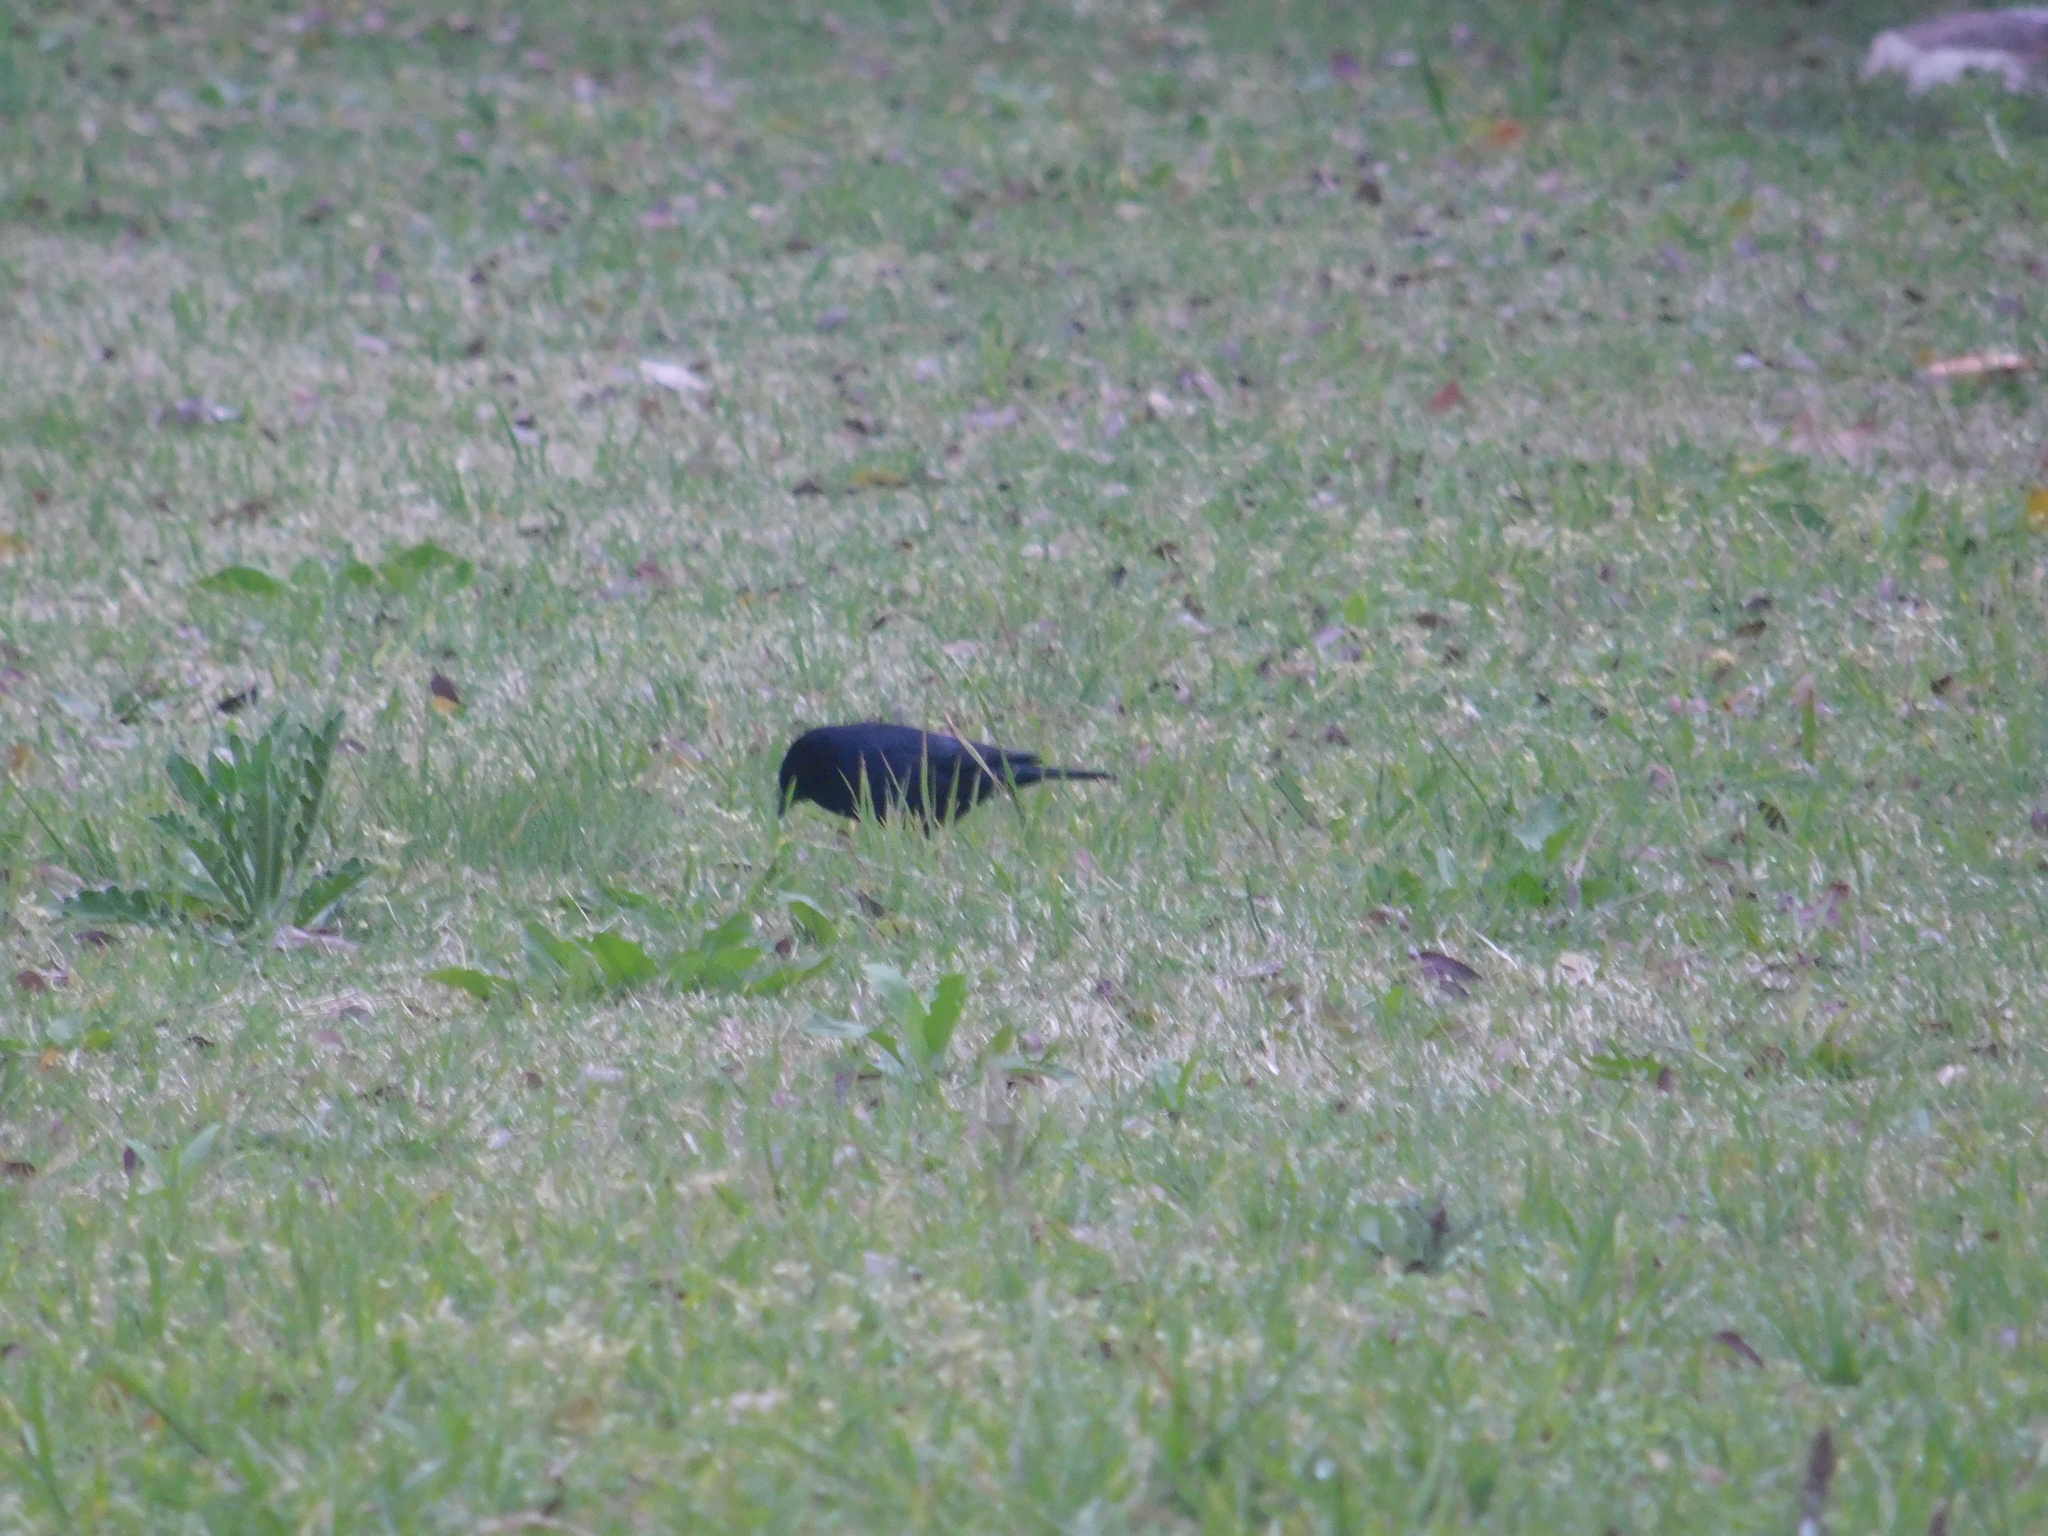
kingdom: Animalia
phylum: Chordata
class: Aves
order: Passeriformes
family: Icteridae
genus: Molothrus
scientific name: Molothrus bonariensis
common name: Shiny cowbird
